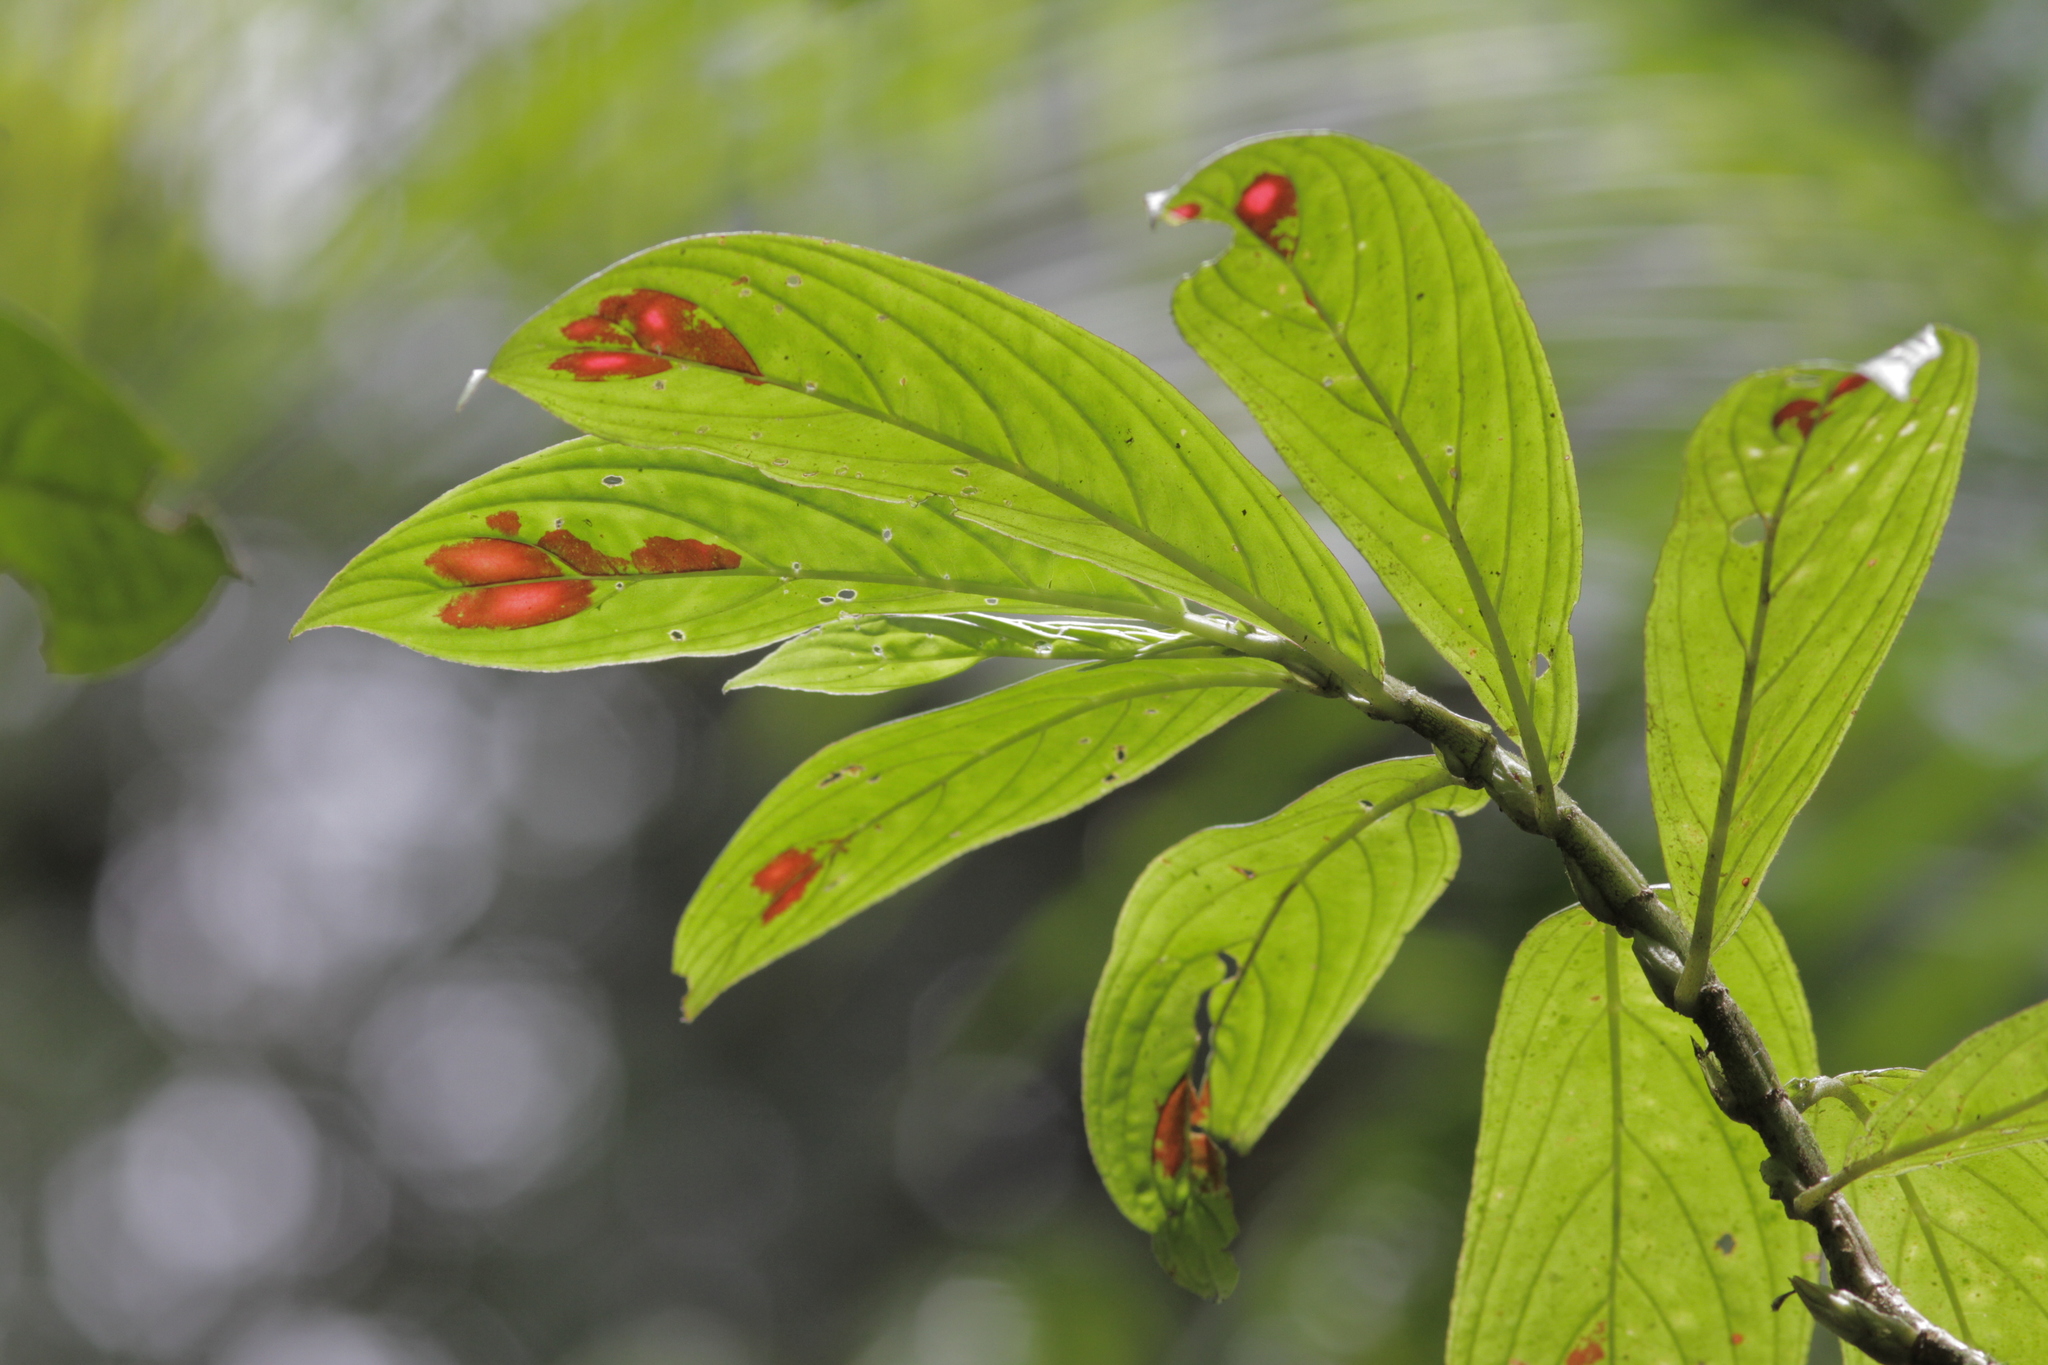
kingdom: Plantae
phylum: Tracheophyta
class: Magnoliopsida
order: Lamiales
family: Gesneriaceae
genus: Columnea
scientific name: Columnea consanguinea
